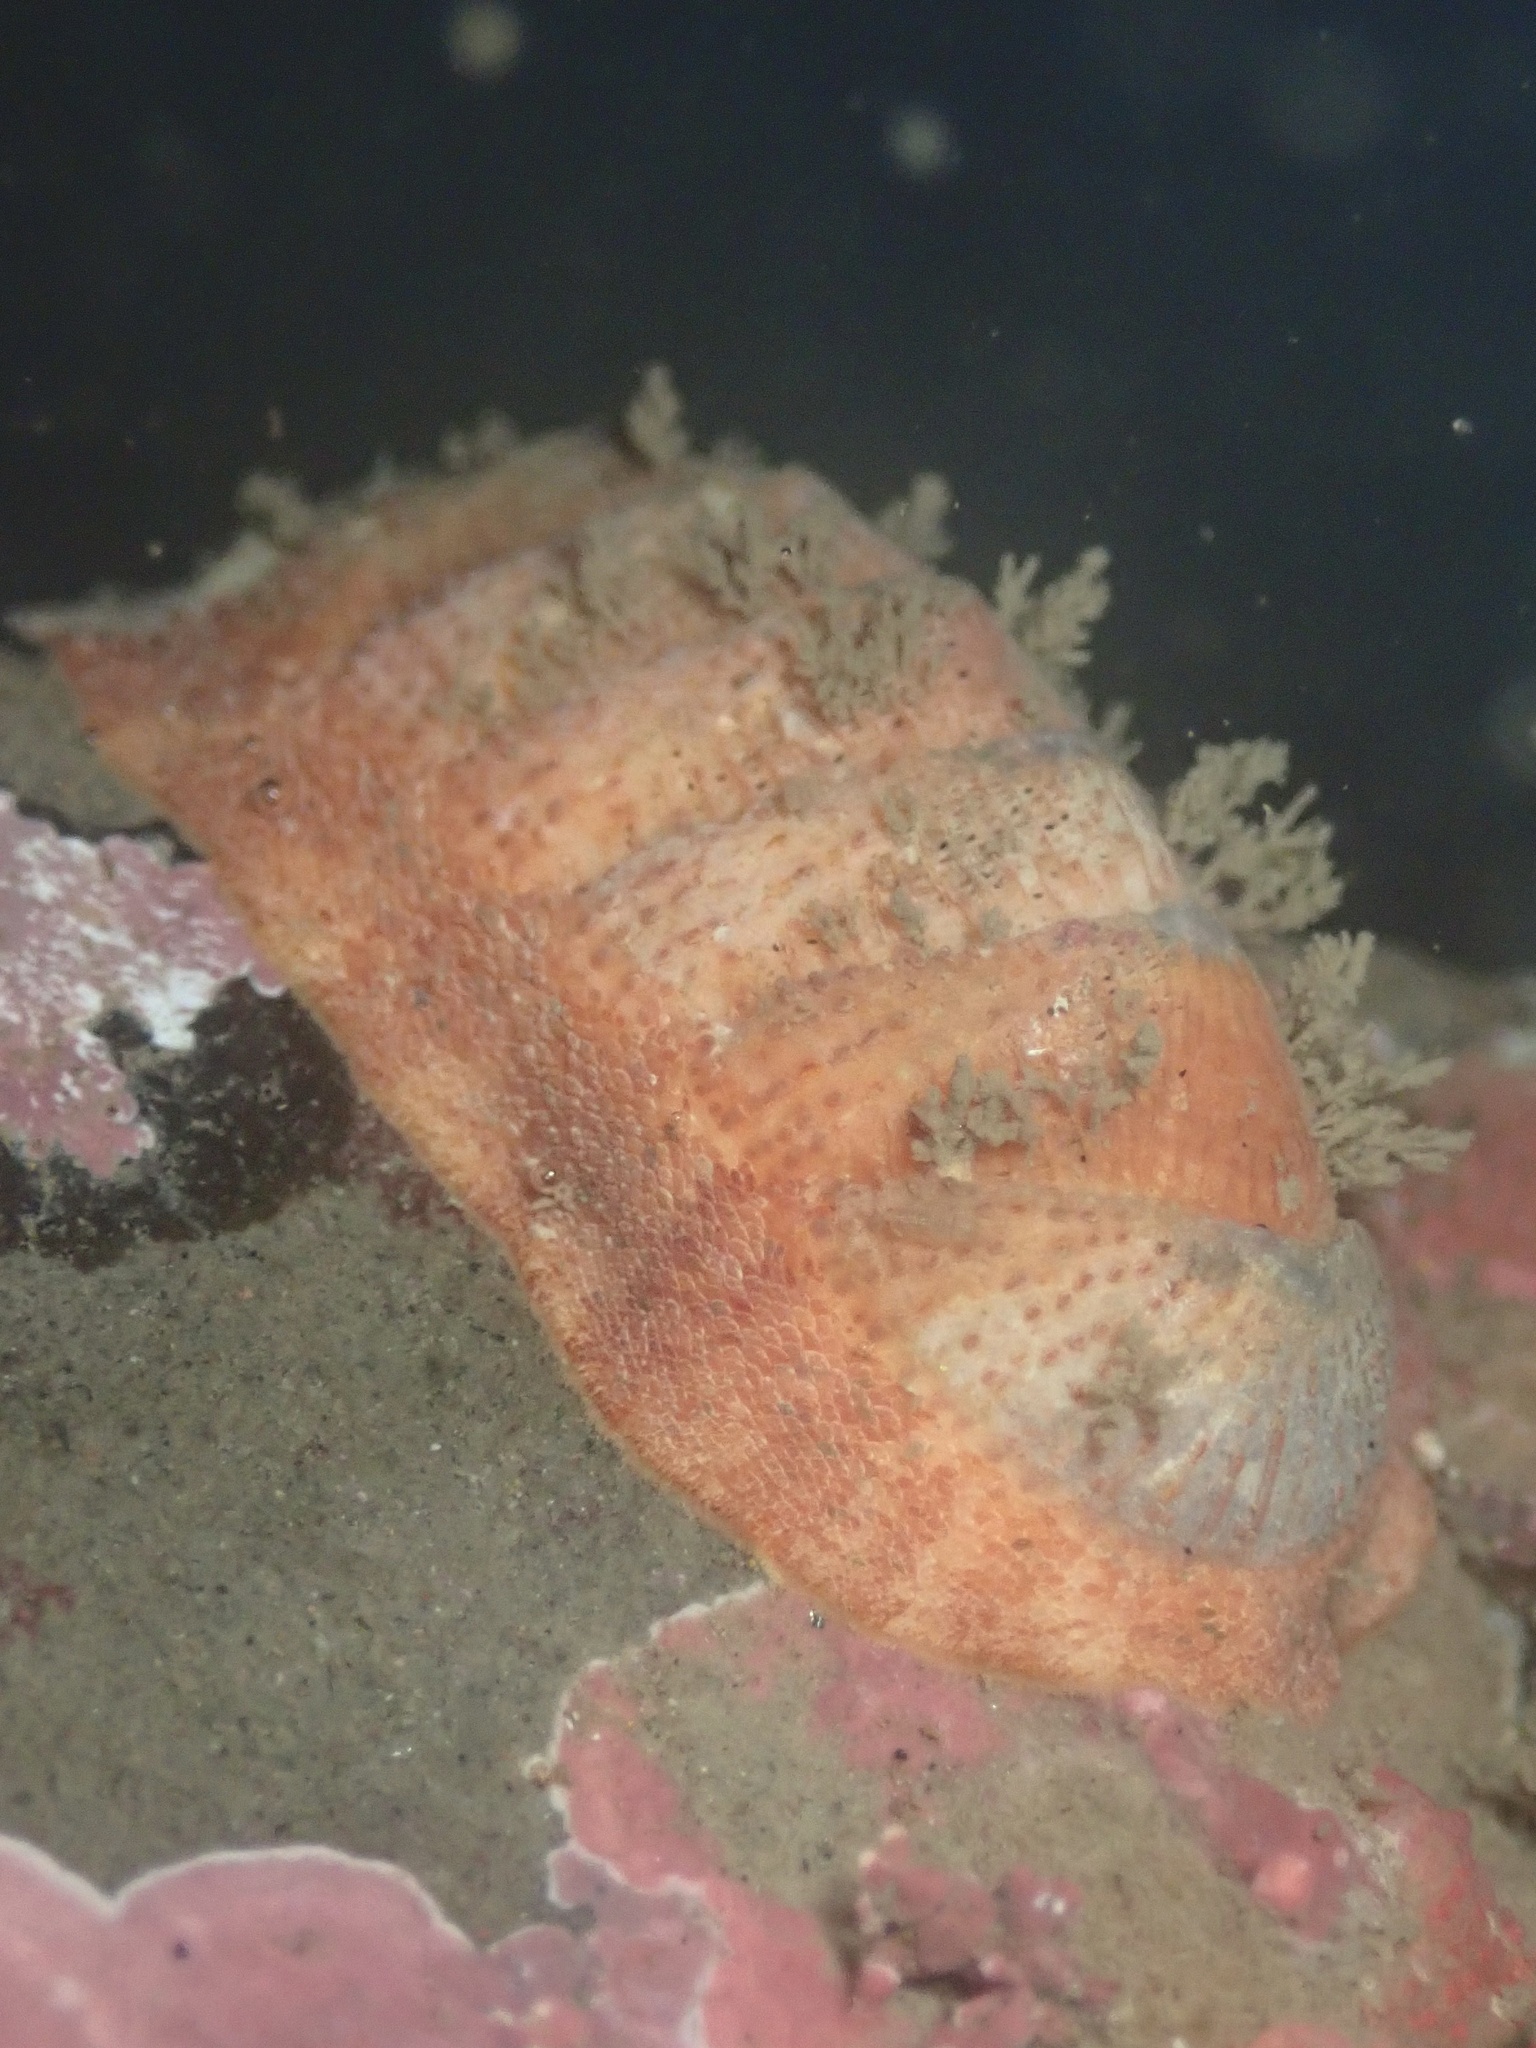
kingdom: Animalia
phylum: Mollusca
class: Polyplacophora
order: Chitonida
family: Ischnochitonidae
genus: Lepidozona
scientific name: Lepidozona mertensii
